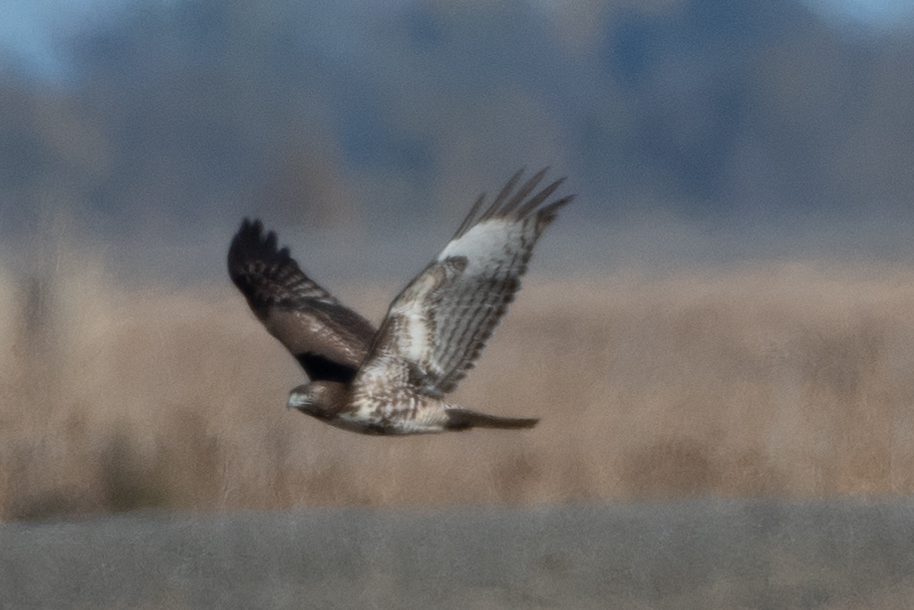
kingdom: Animalia
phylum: Chordata
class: Aves
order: Accipitriformes
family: Accipitridae
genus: Buteo
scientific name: Buteo jamaicensis
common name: Red-tailed hawk
